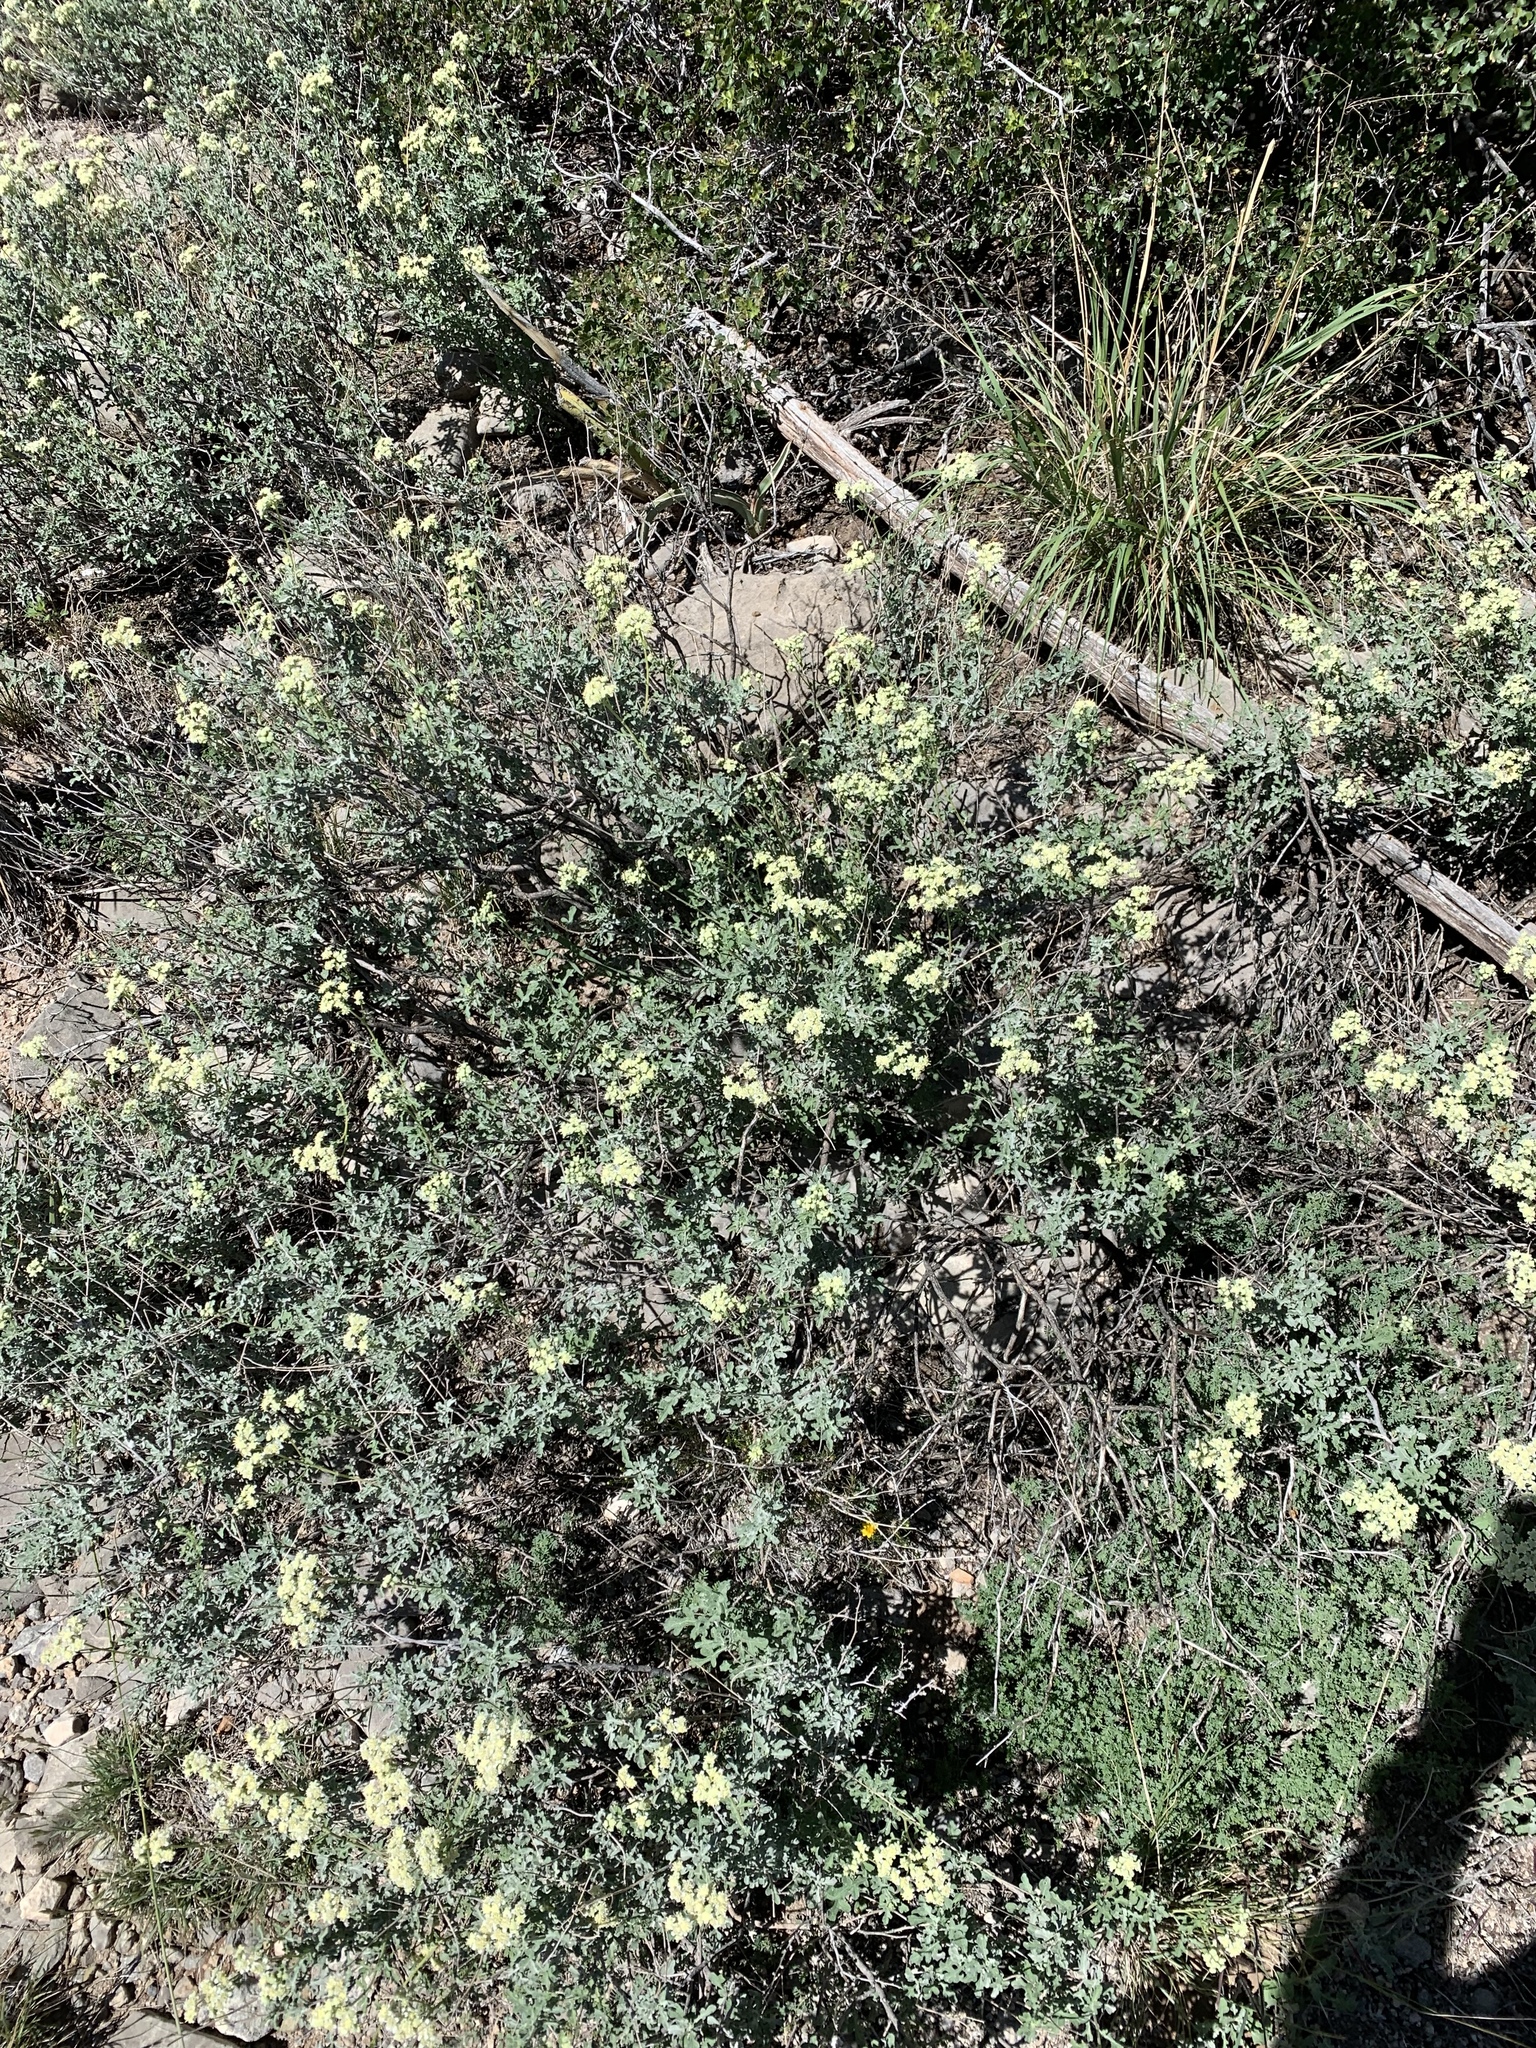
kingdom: Plantae
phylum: Tracheophyta
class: Magnoliopsida
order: Asterales
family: Asteraceae
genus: Parthenium
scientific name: Parthenium incanum
